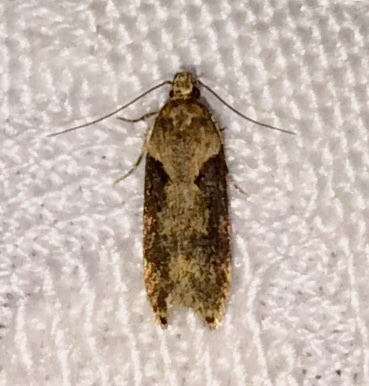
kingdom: Animalia
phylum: Arthropoda
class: Insecta
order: Lepidoptera
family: Gelechiidae
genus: Chionodes
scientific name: Chionodes mediofuscella
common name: Black-smudged chionodes moth
